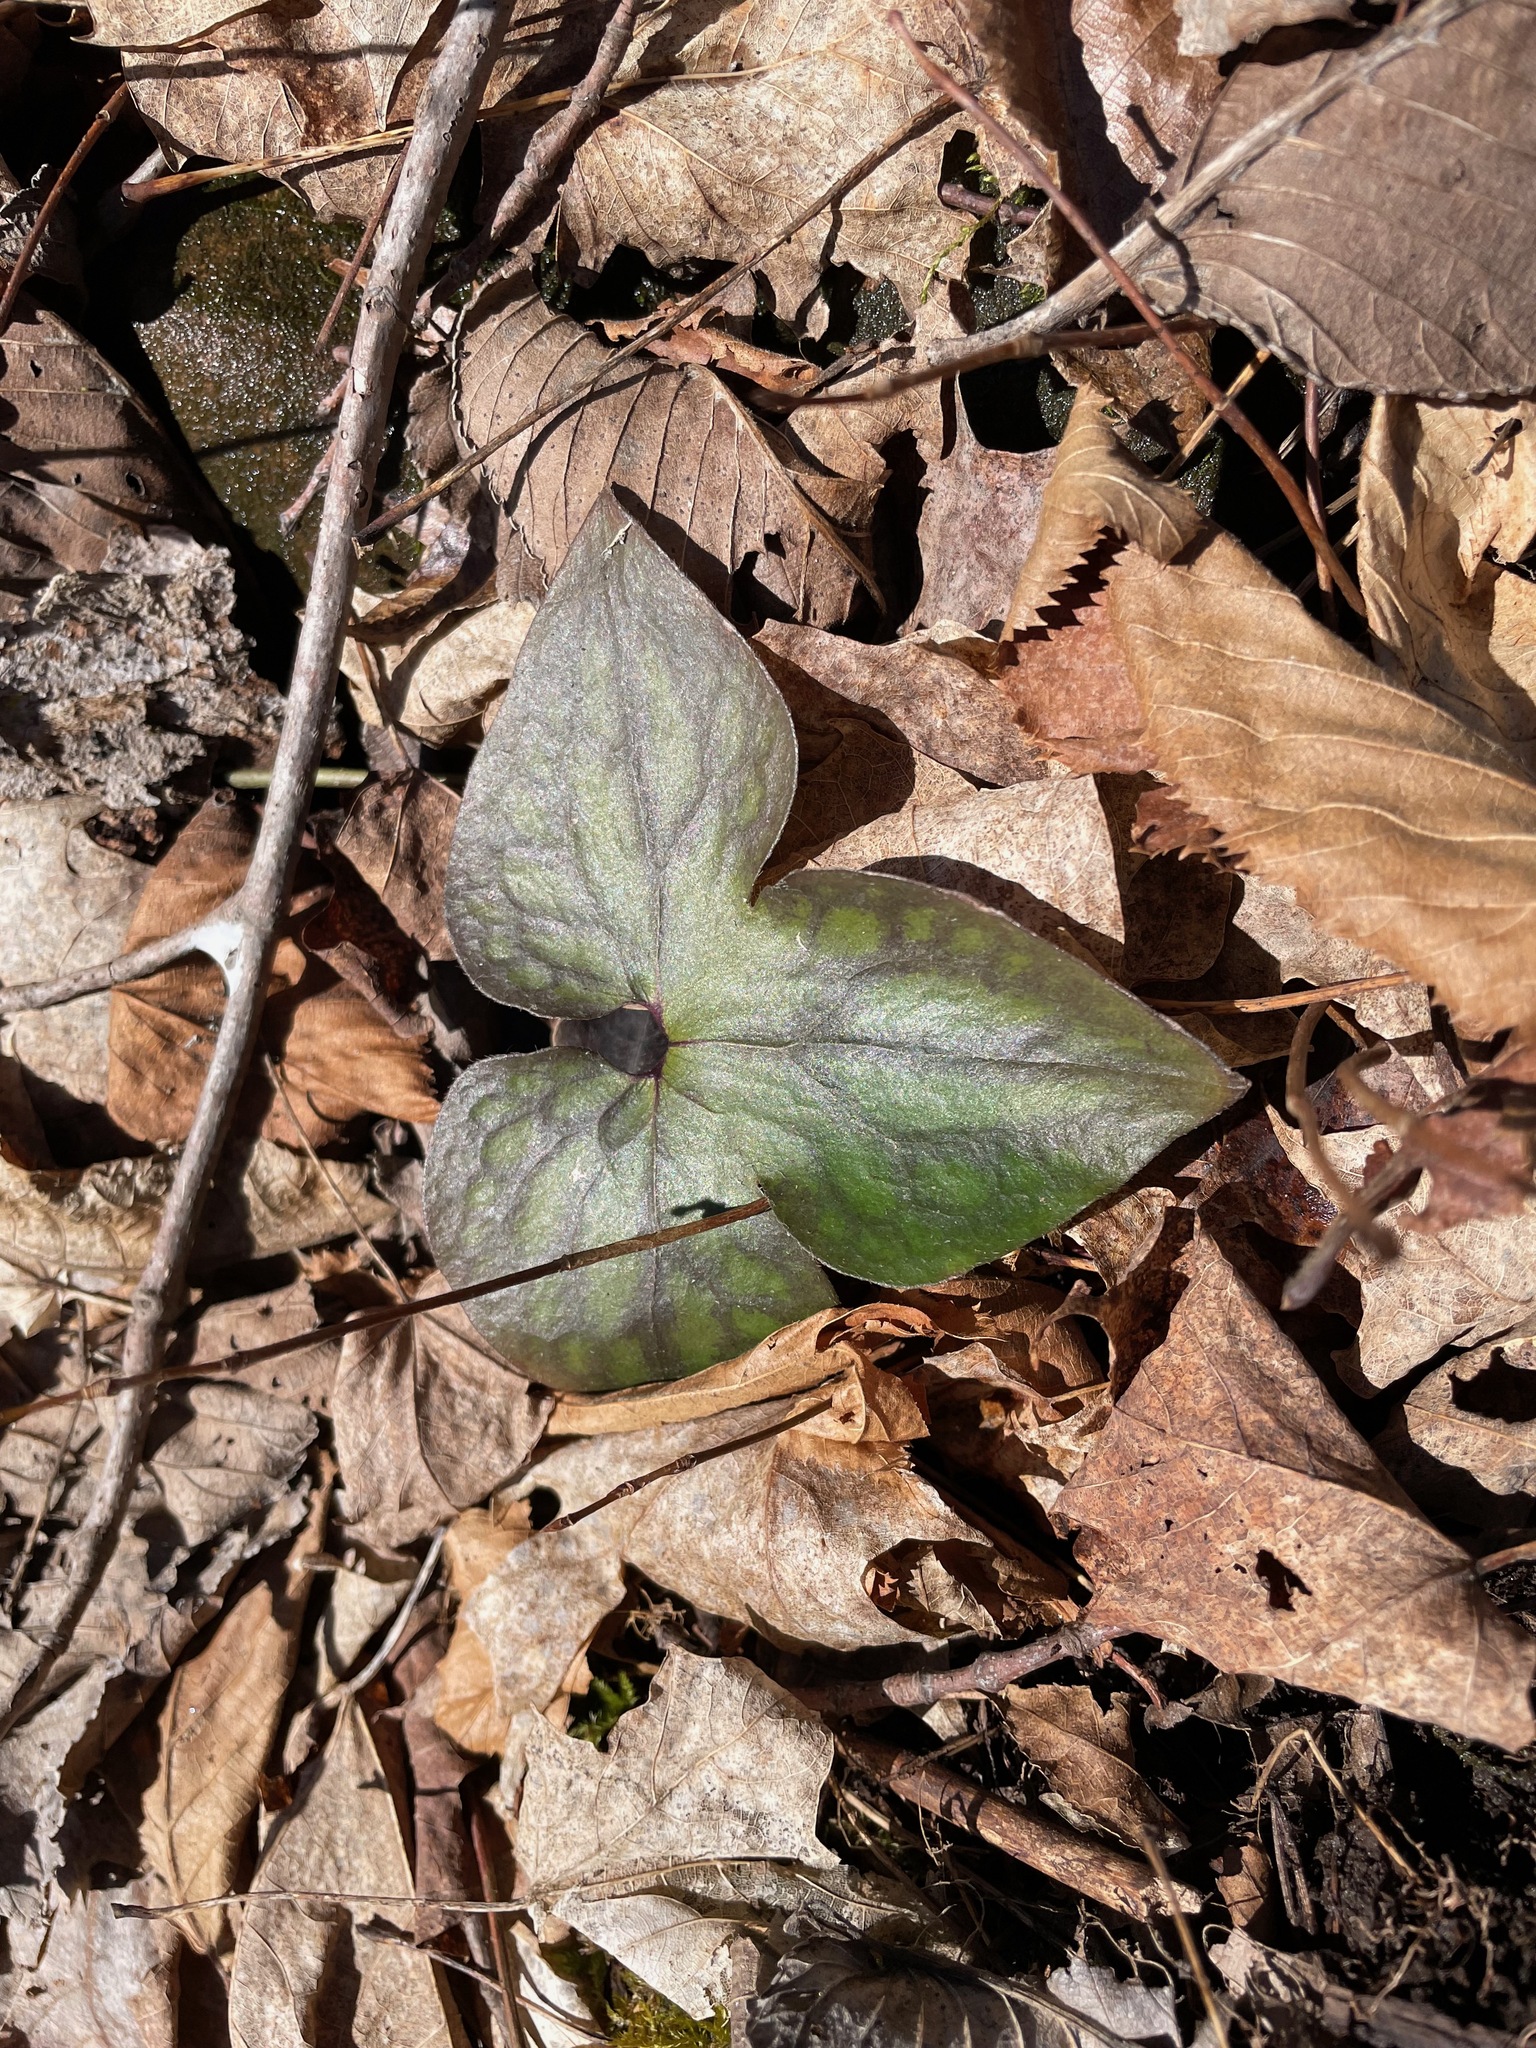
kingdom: Plantae
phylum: Tracheophyta
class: Magnoliopsida
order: Ranunculales
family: Ranunculaceae
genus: Hepatica
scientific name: Hepatica acutiloba
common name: Sharp-lobed hepatica
